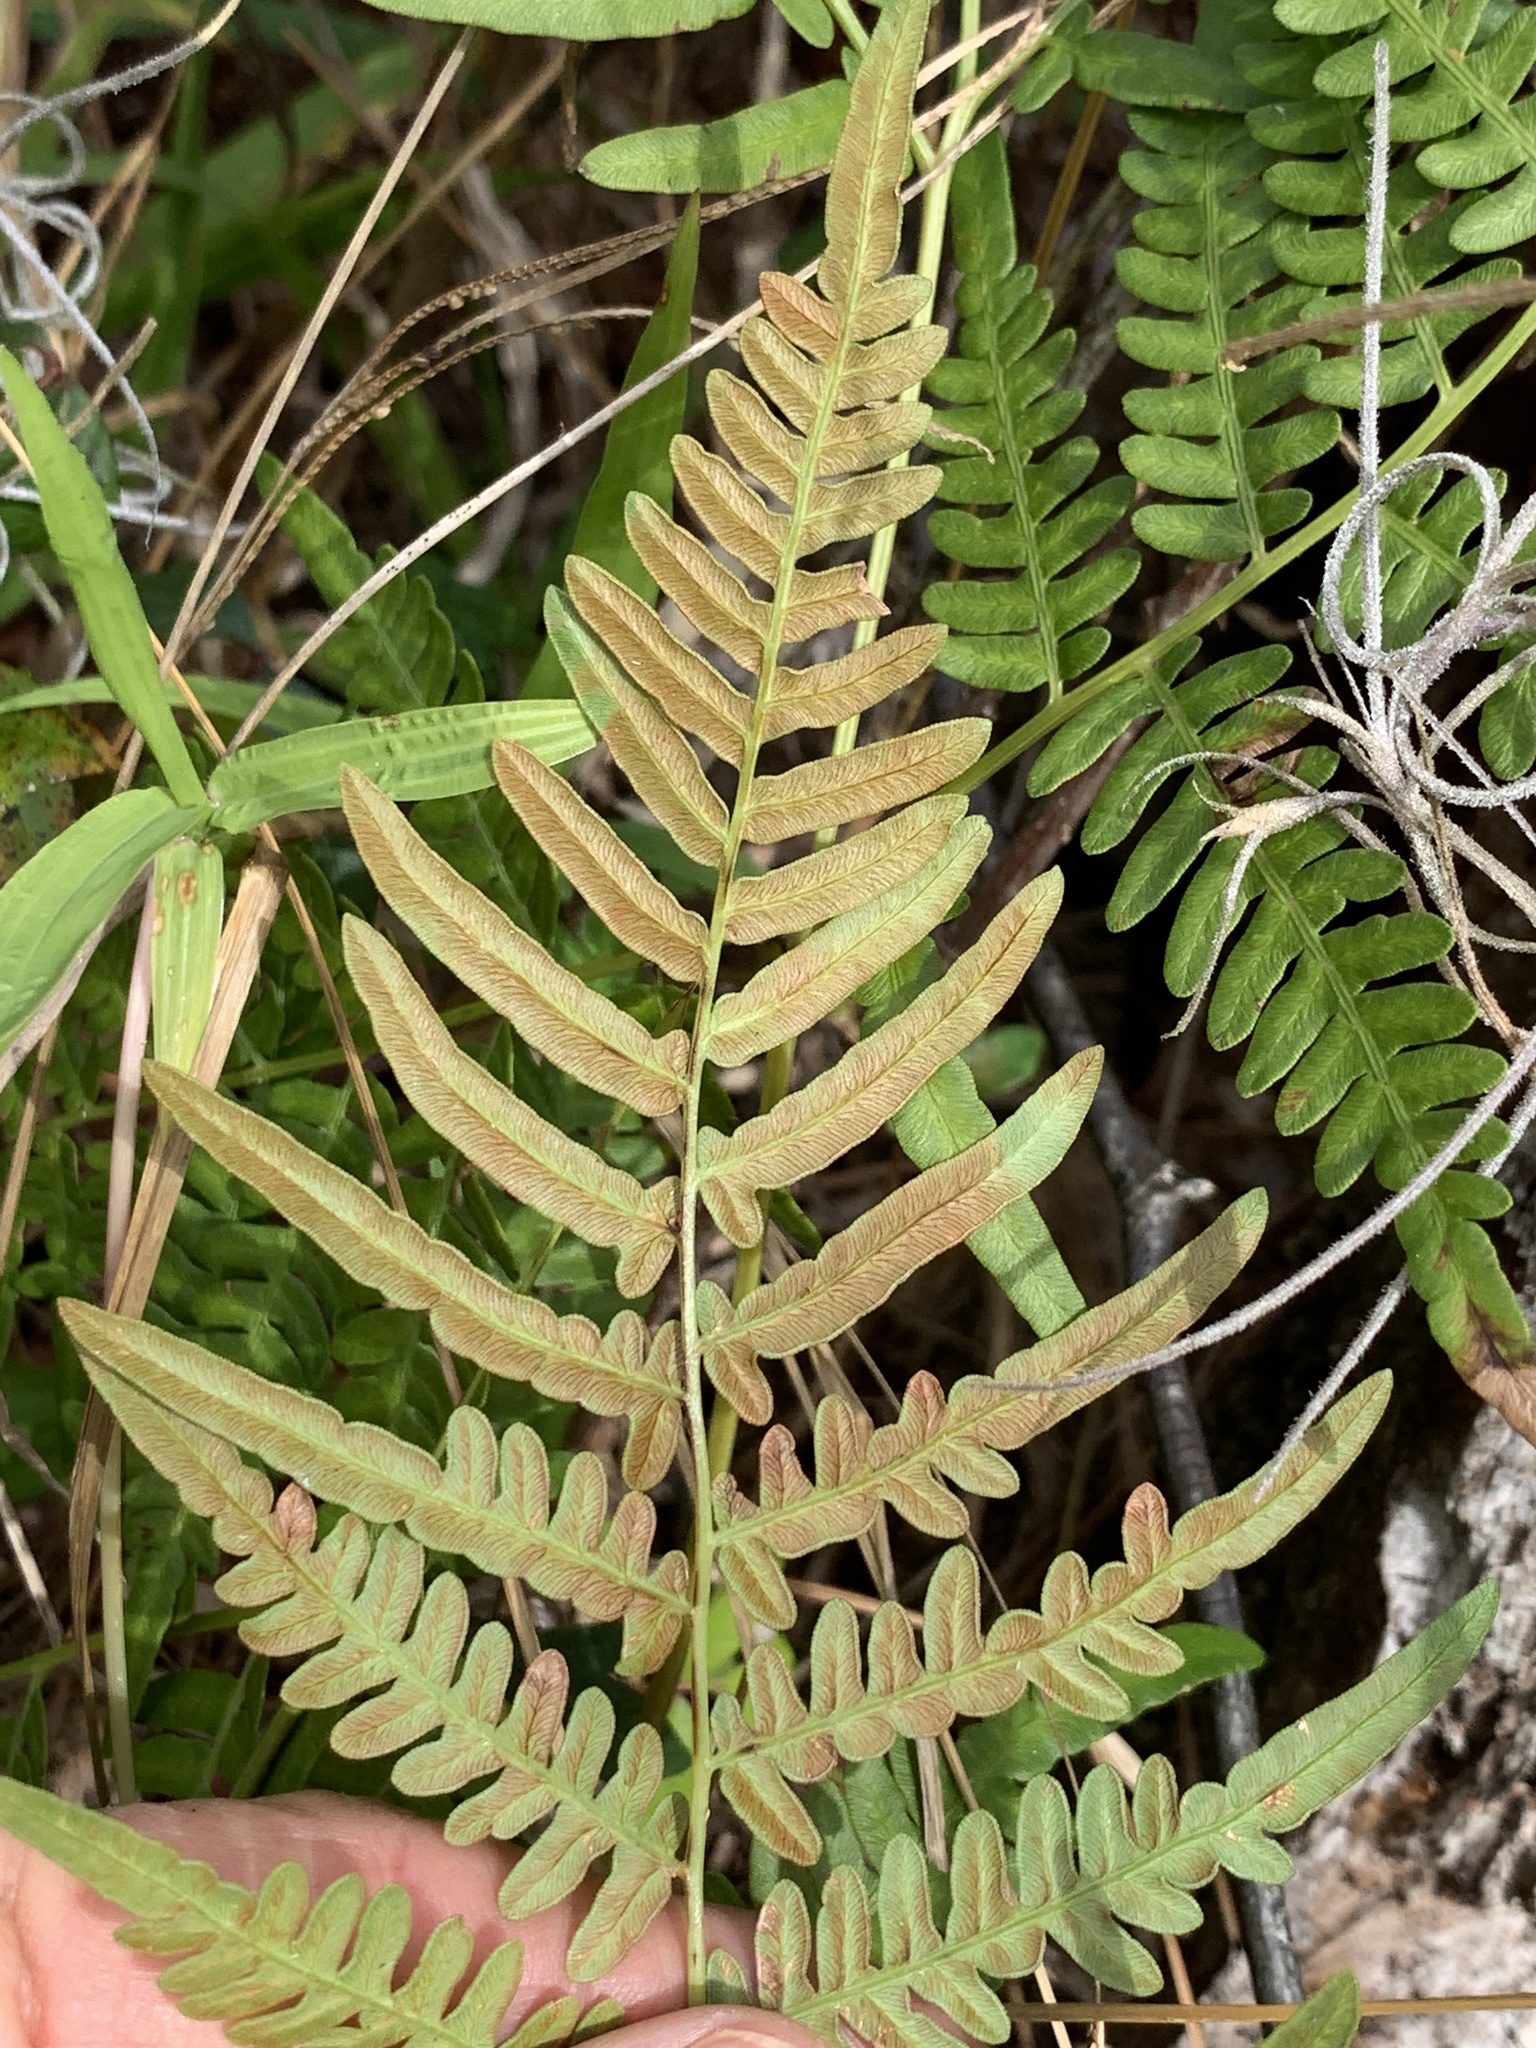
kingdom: Plantae
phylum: Tracheophyta
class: Polypodiopsida
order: Polypodiales
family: Dennstaedtiaceae
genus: Pteridium
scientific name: Pteridium
